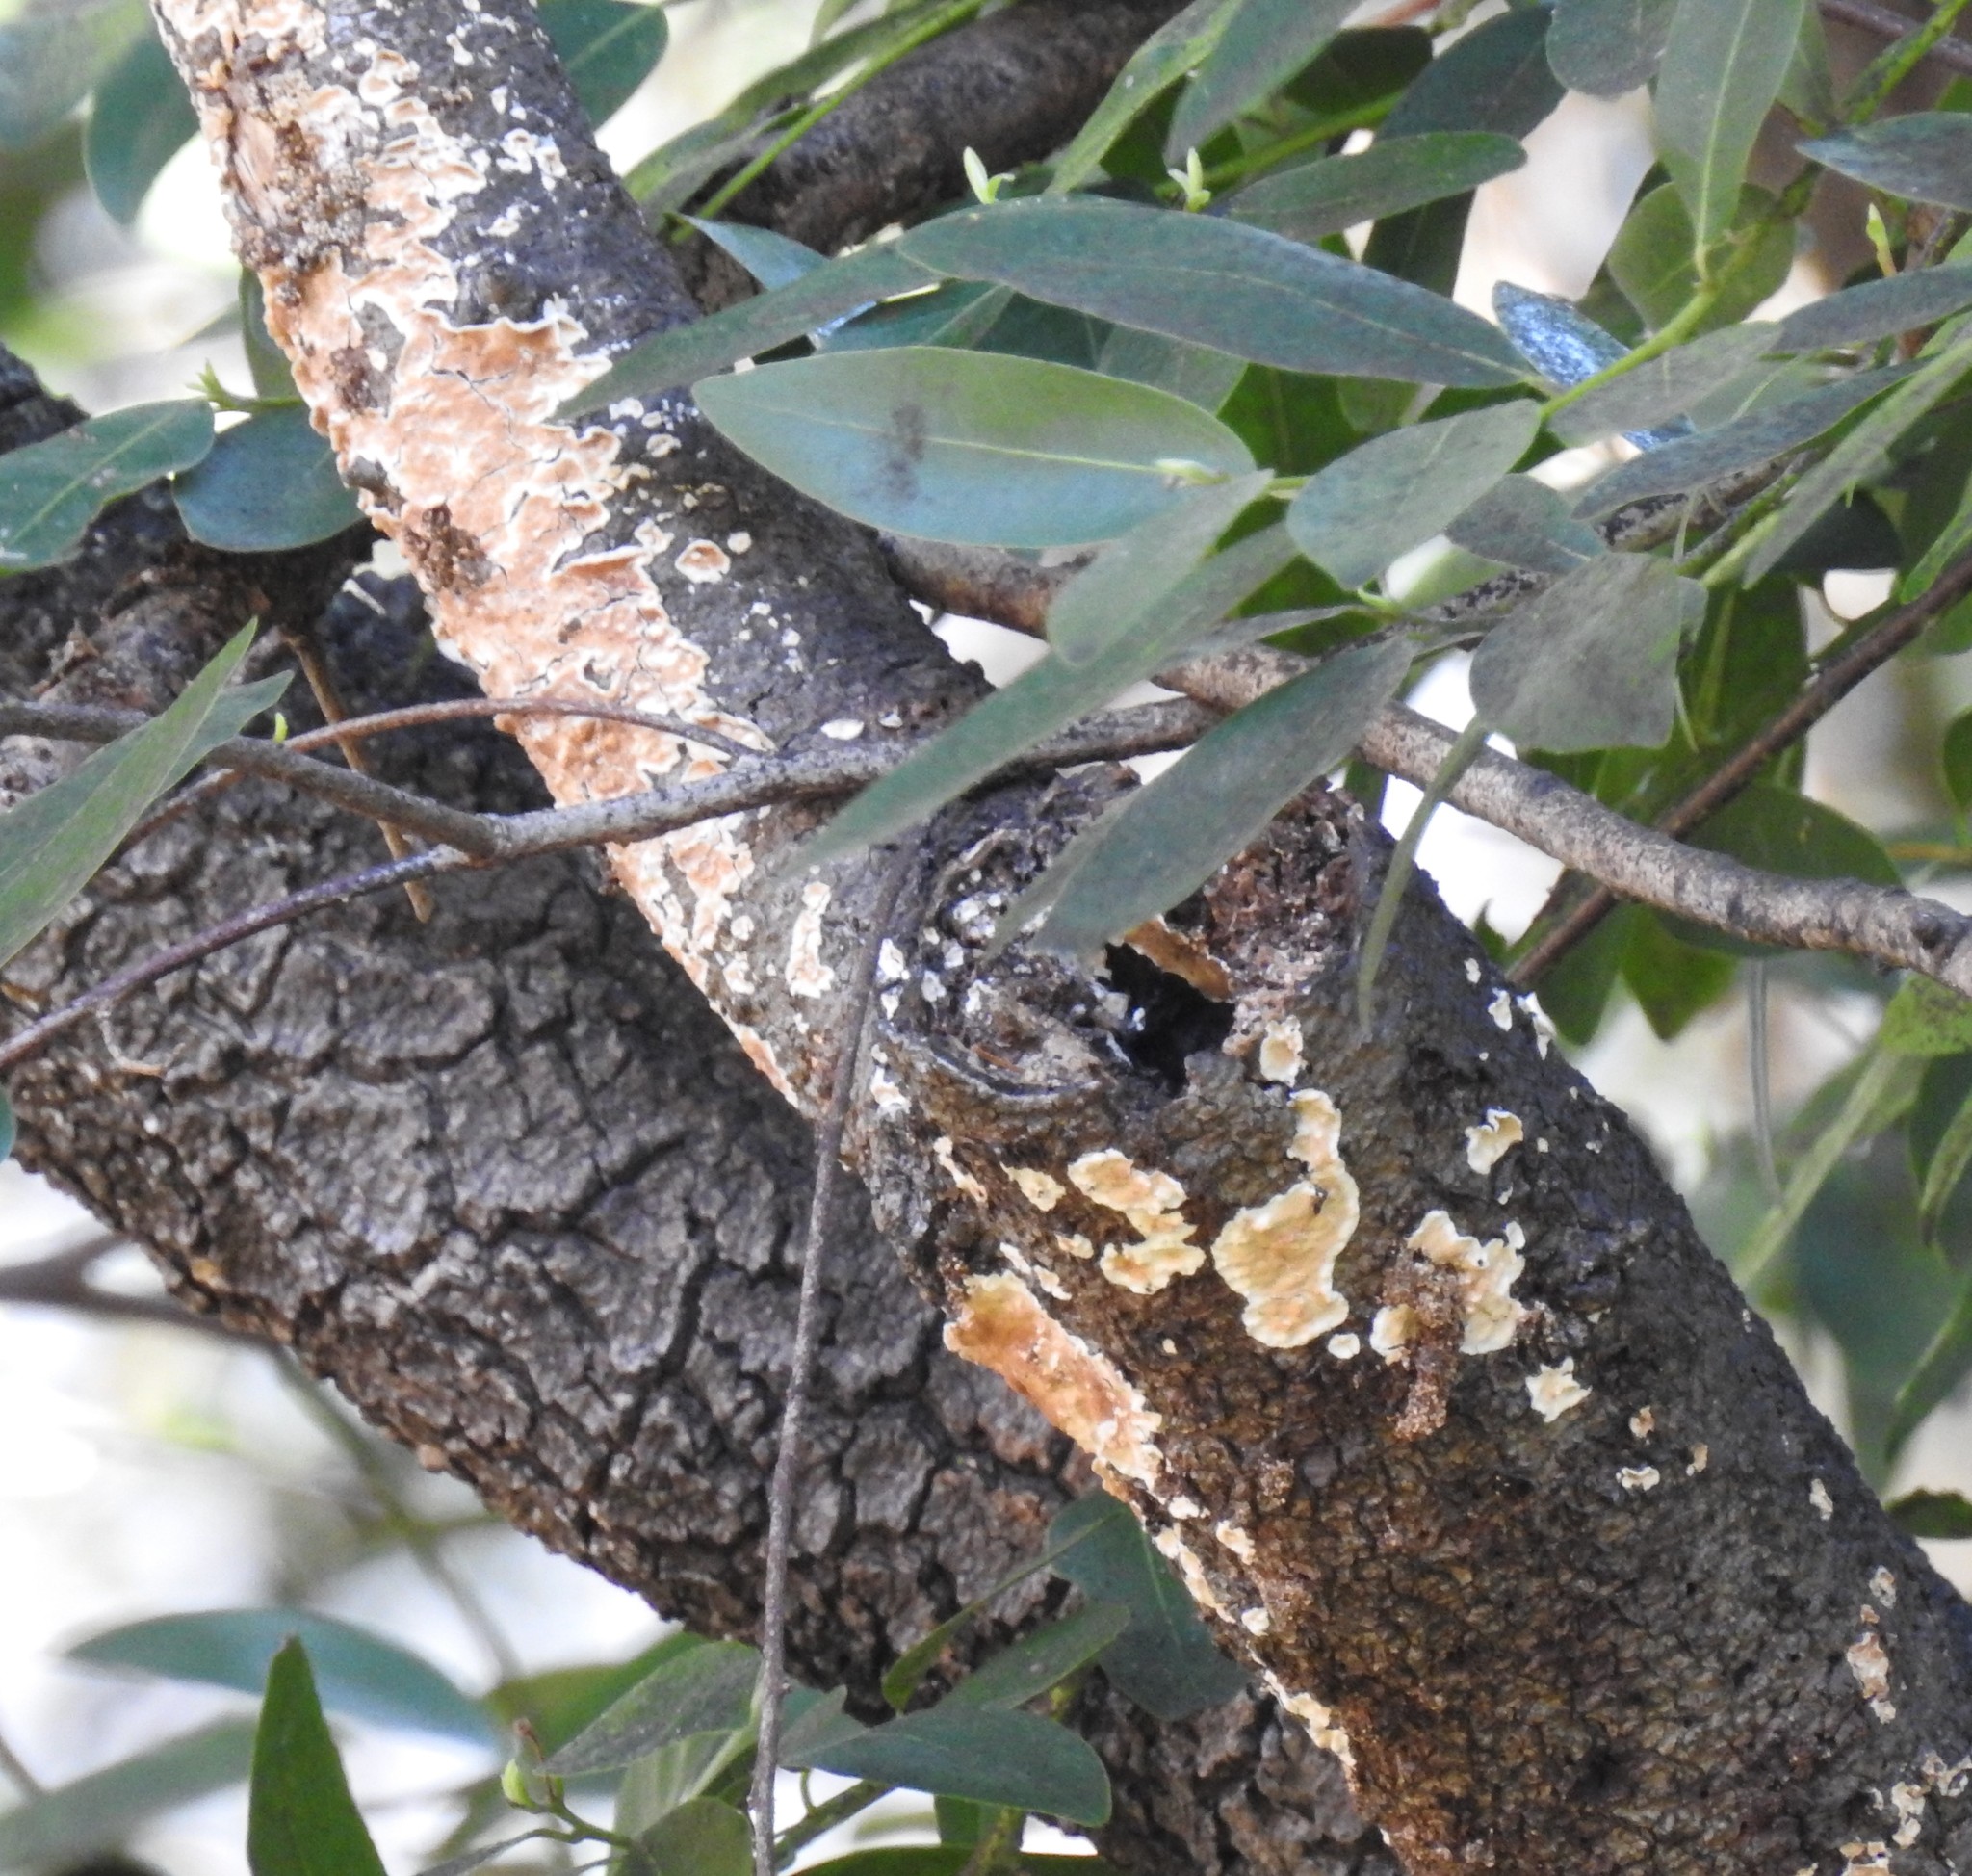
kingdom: Fungi
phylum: Basidiomycota
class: Agaricomycetes
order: Polyporales
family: Irpicaceae
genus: Byssomerulius
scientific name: Byssomerulius corium
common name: Netted crust
